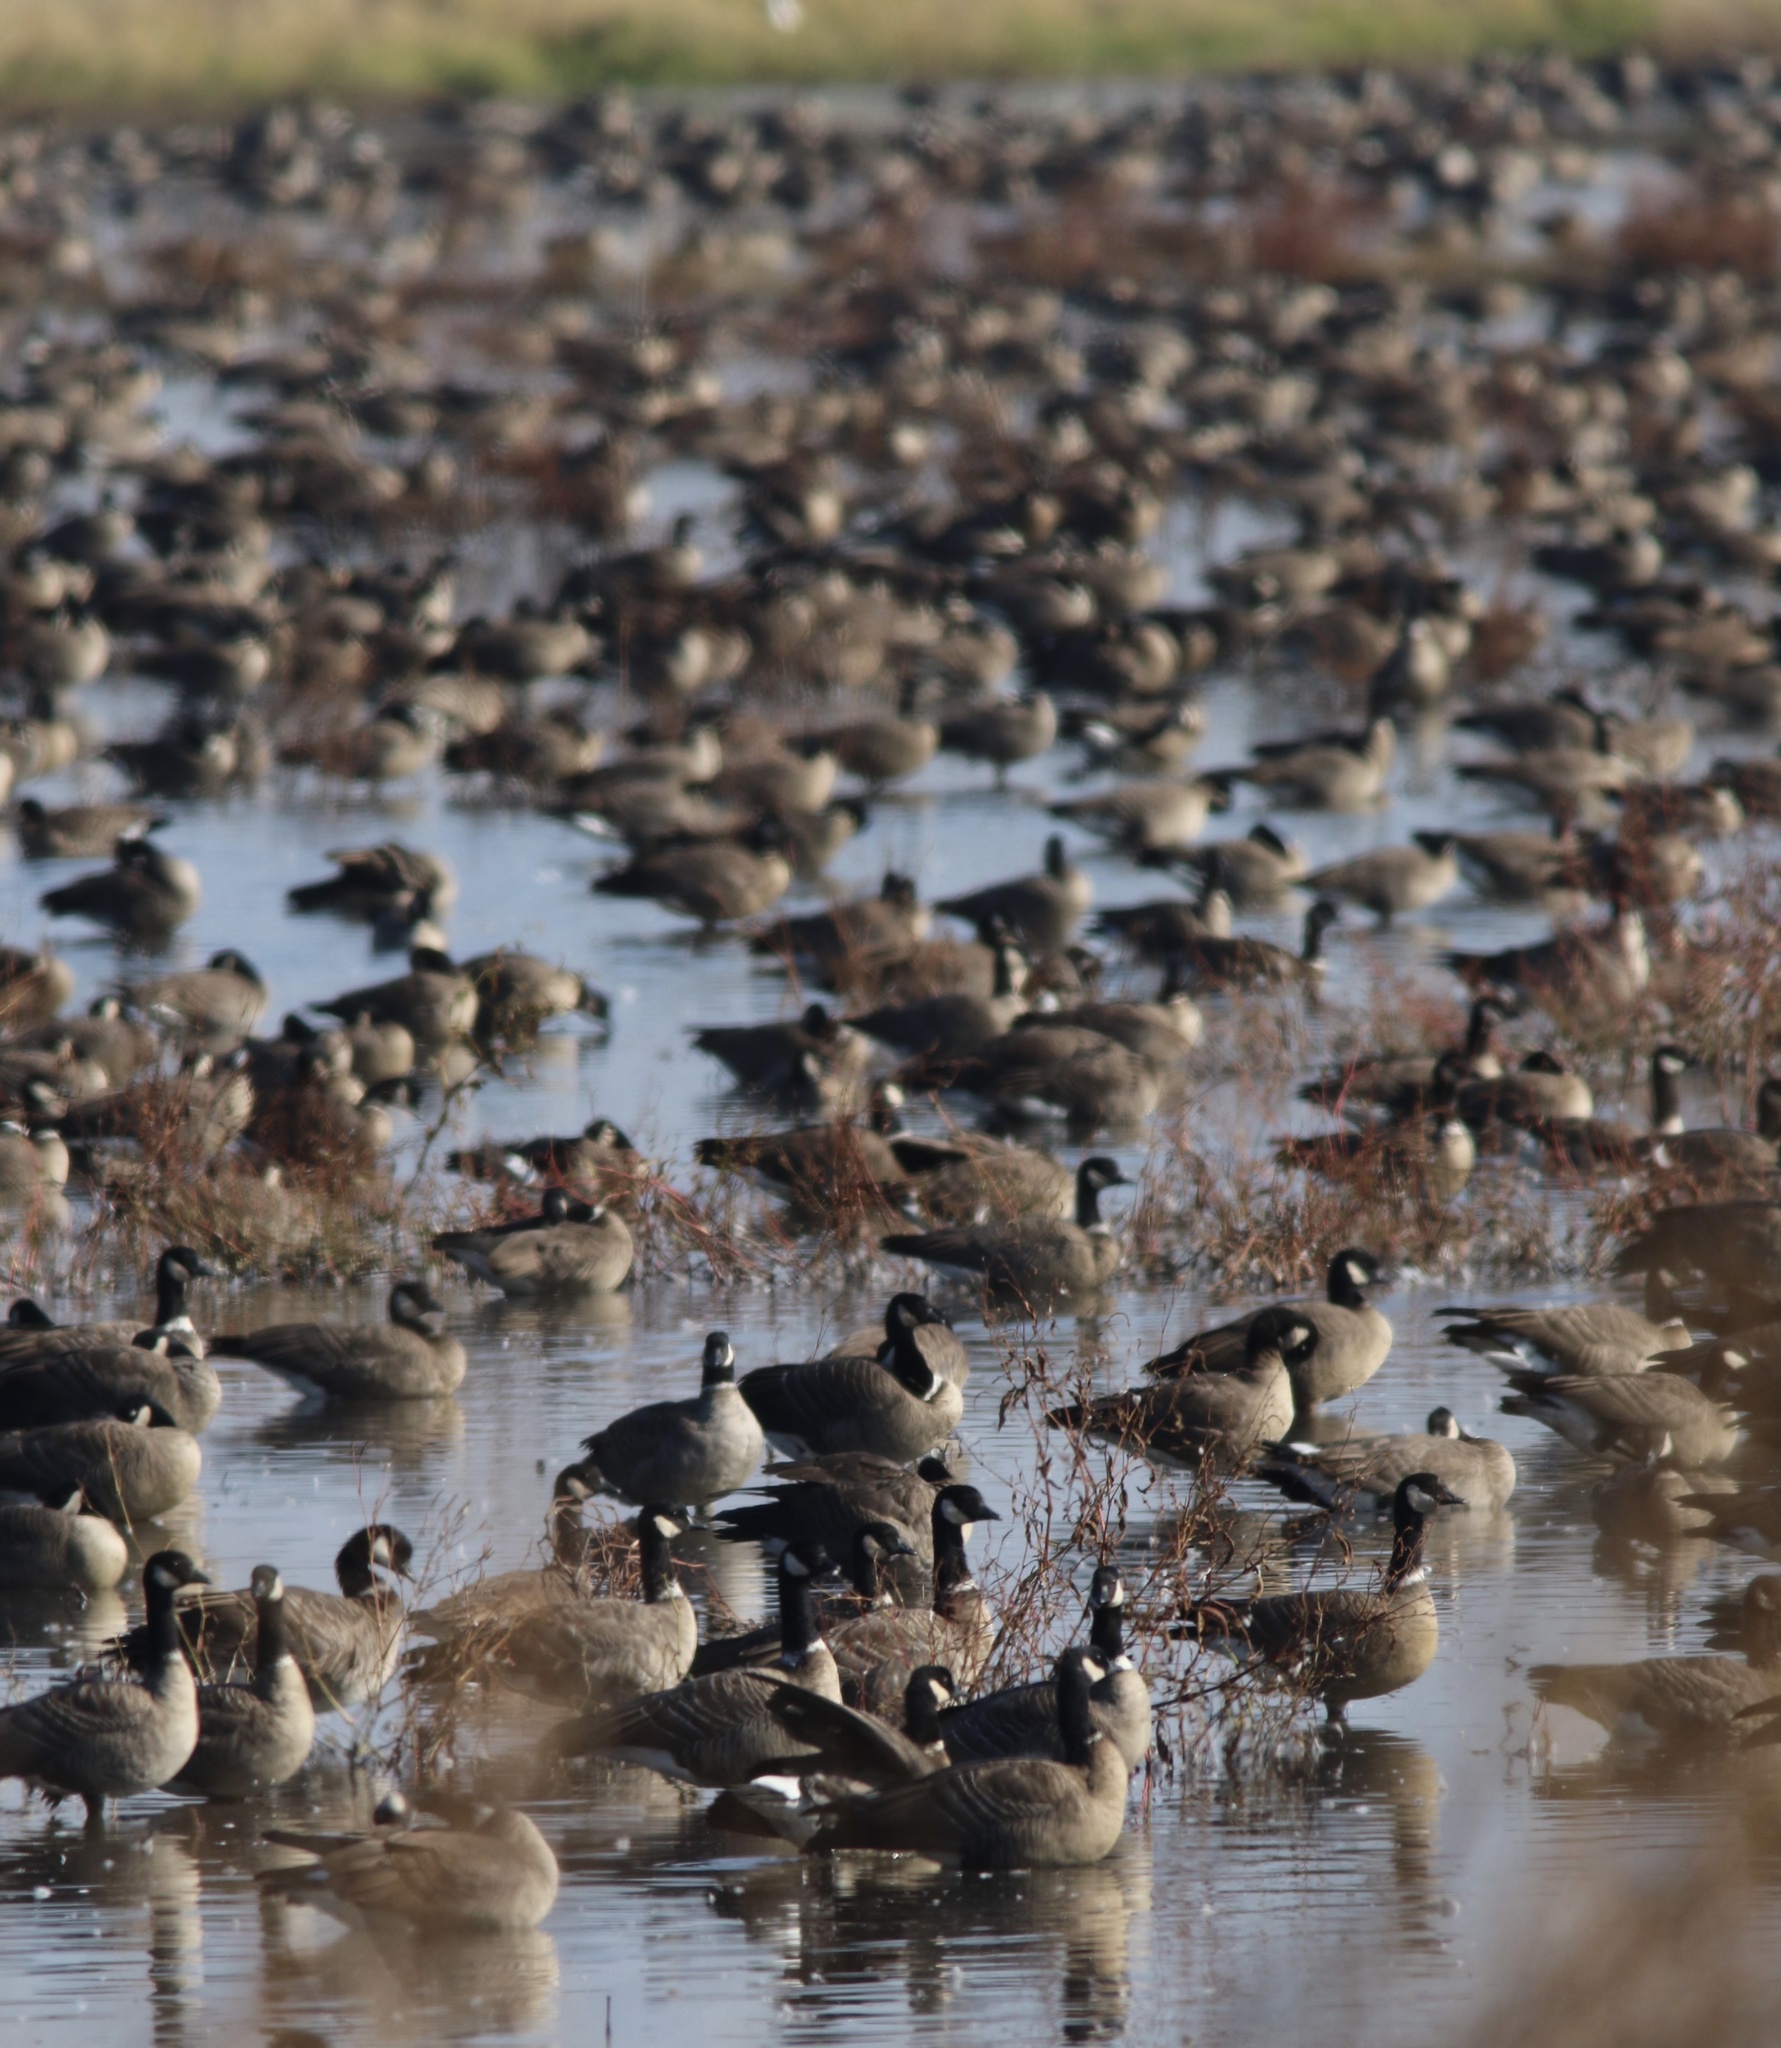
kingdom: Animalia
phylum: Chordata
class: Aves
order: Anseriformes
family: Anatidae
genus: Branta
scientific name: Branta hutchinsii
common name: Cackling goose
